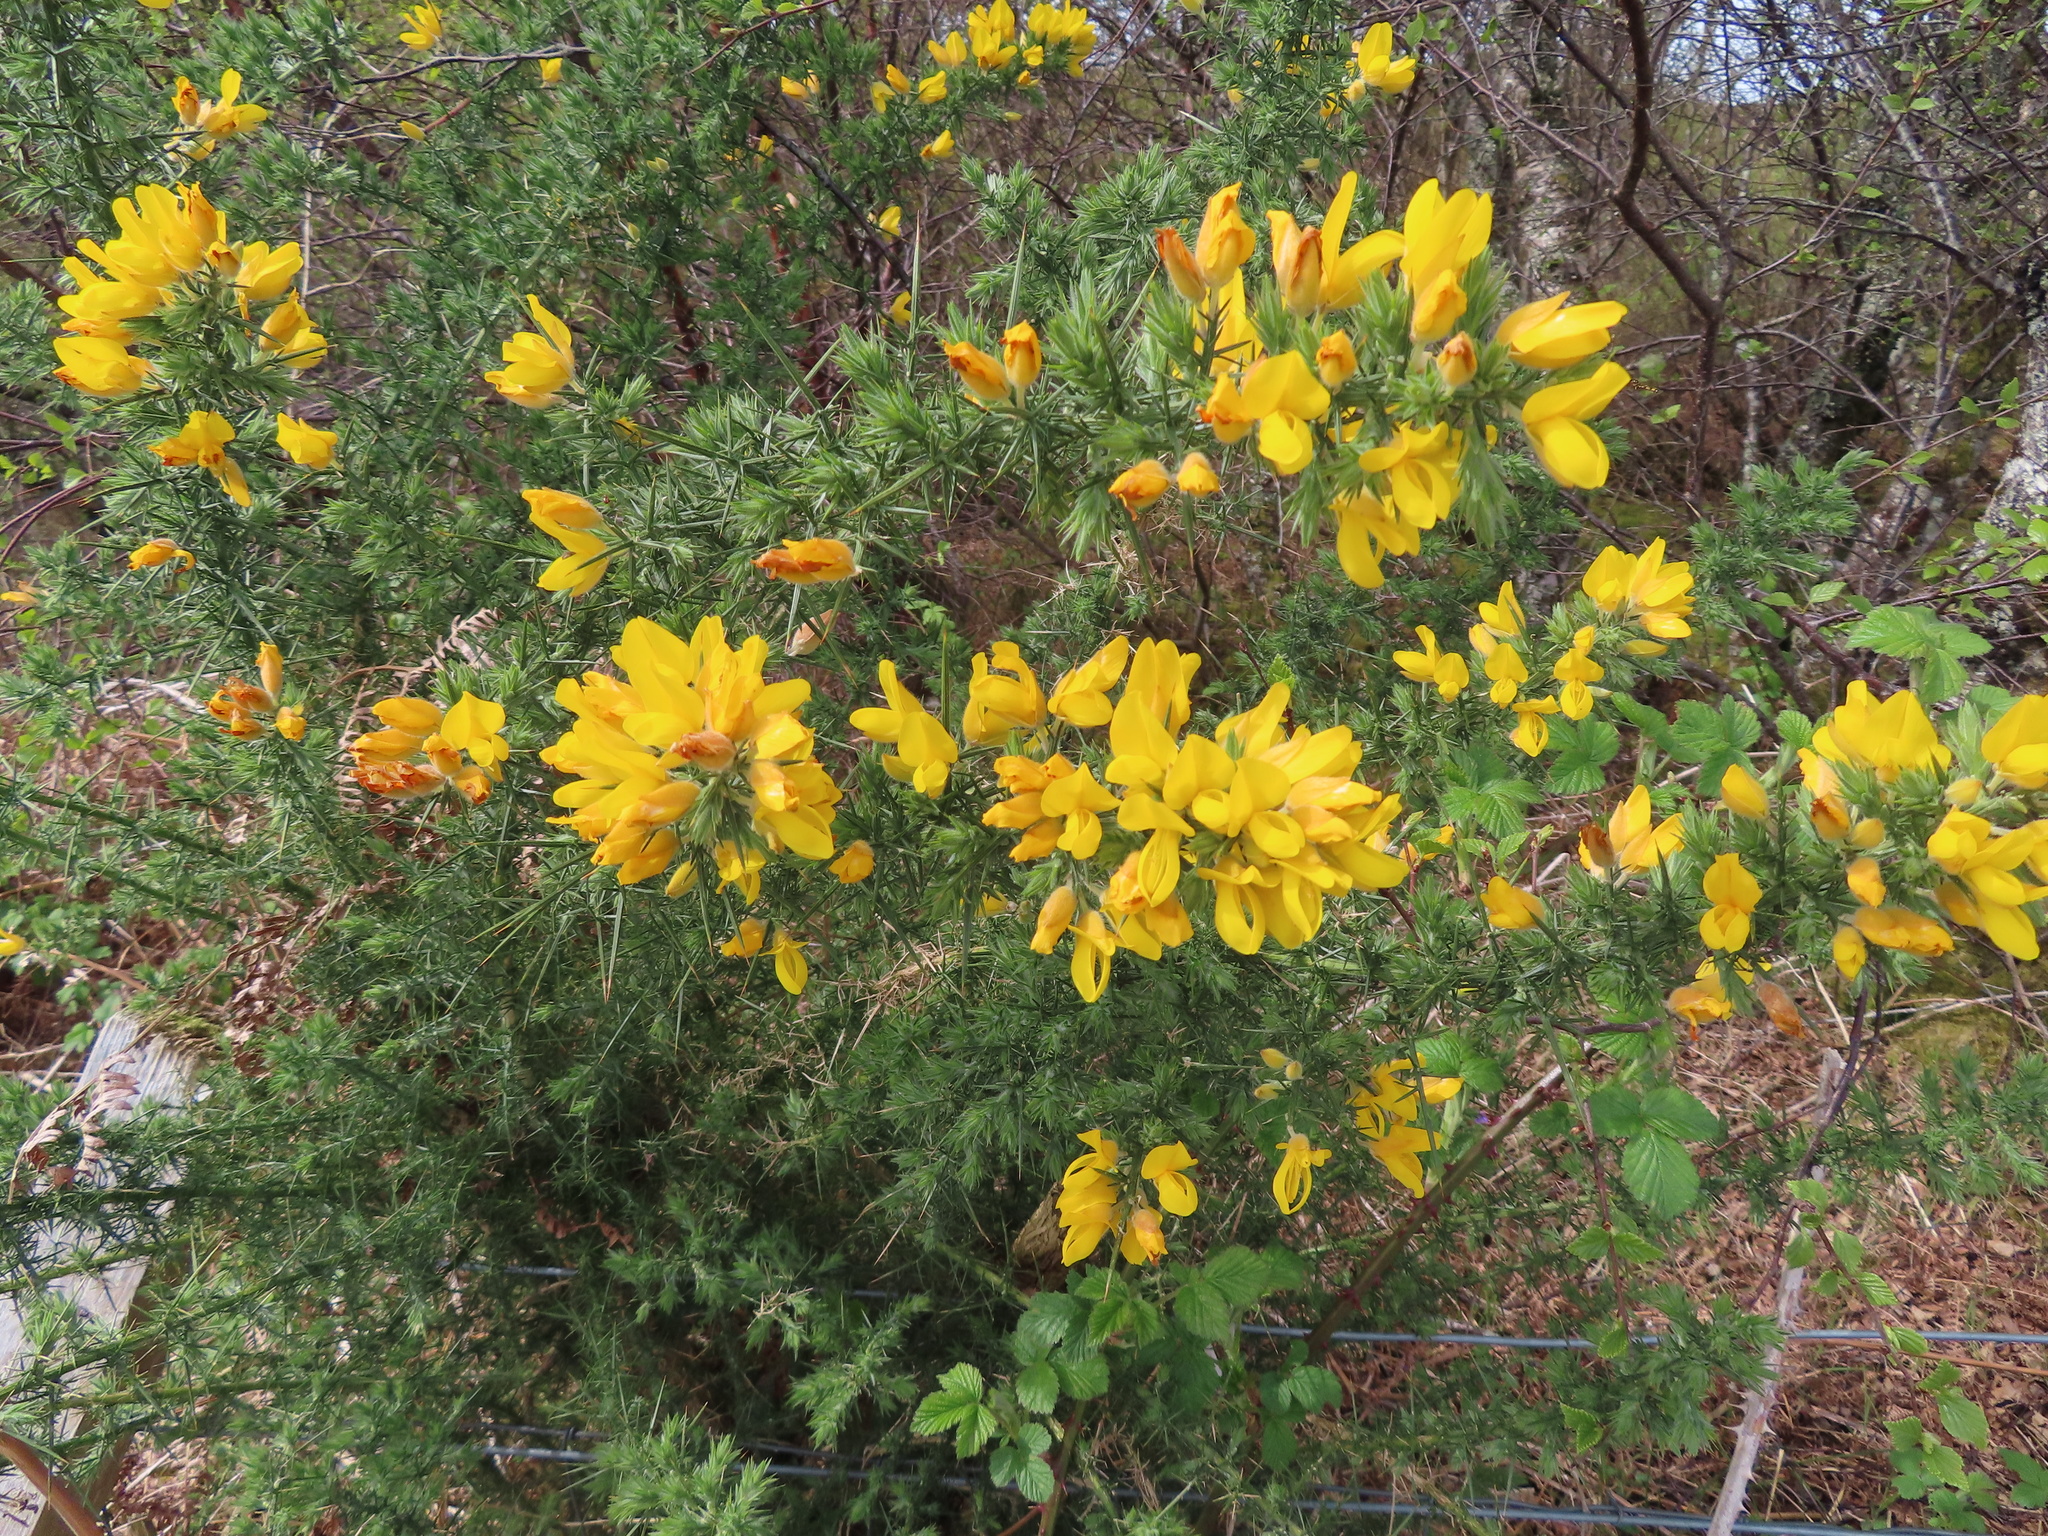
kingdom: Plantae
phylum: Tracheophyta
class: Magnoliopsida
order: Fabales
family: Fabaceae
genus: Ulex
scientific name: Ulex europaeus
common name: Common gorse
